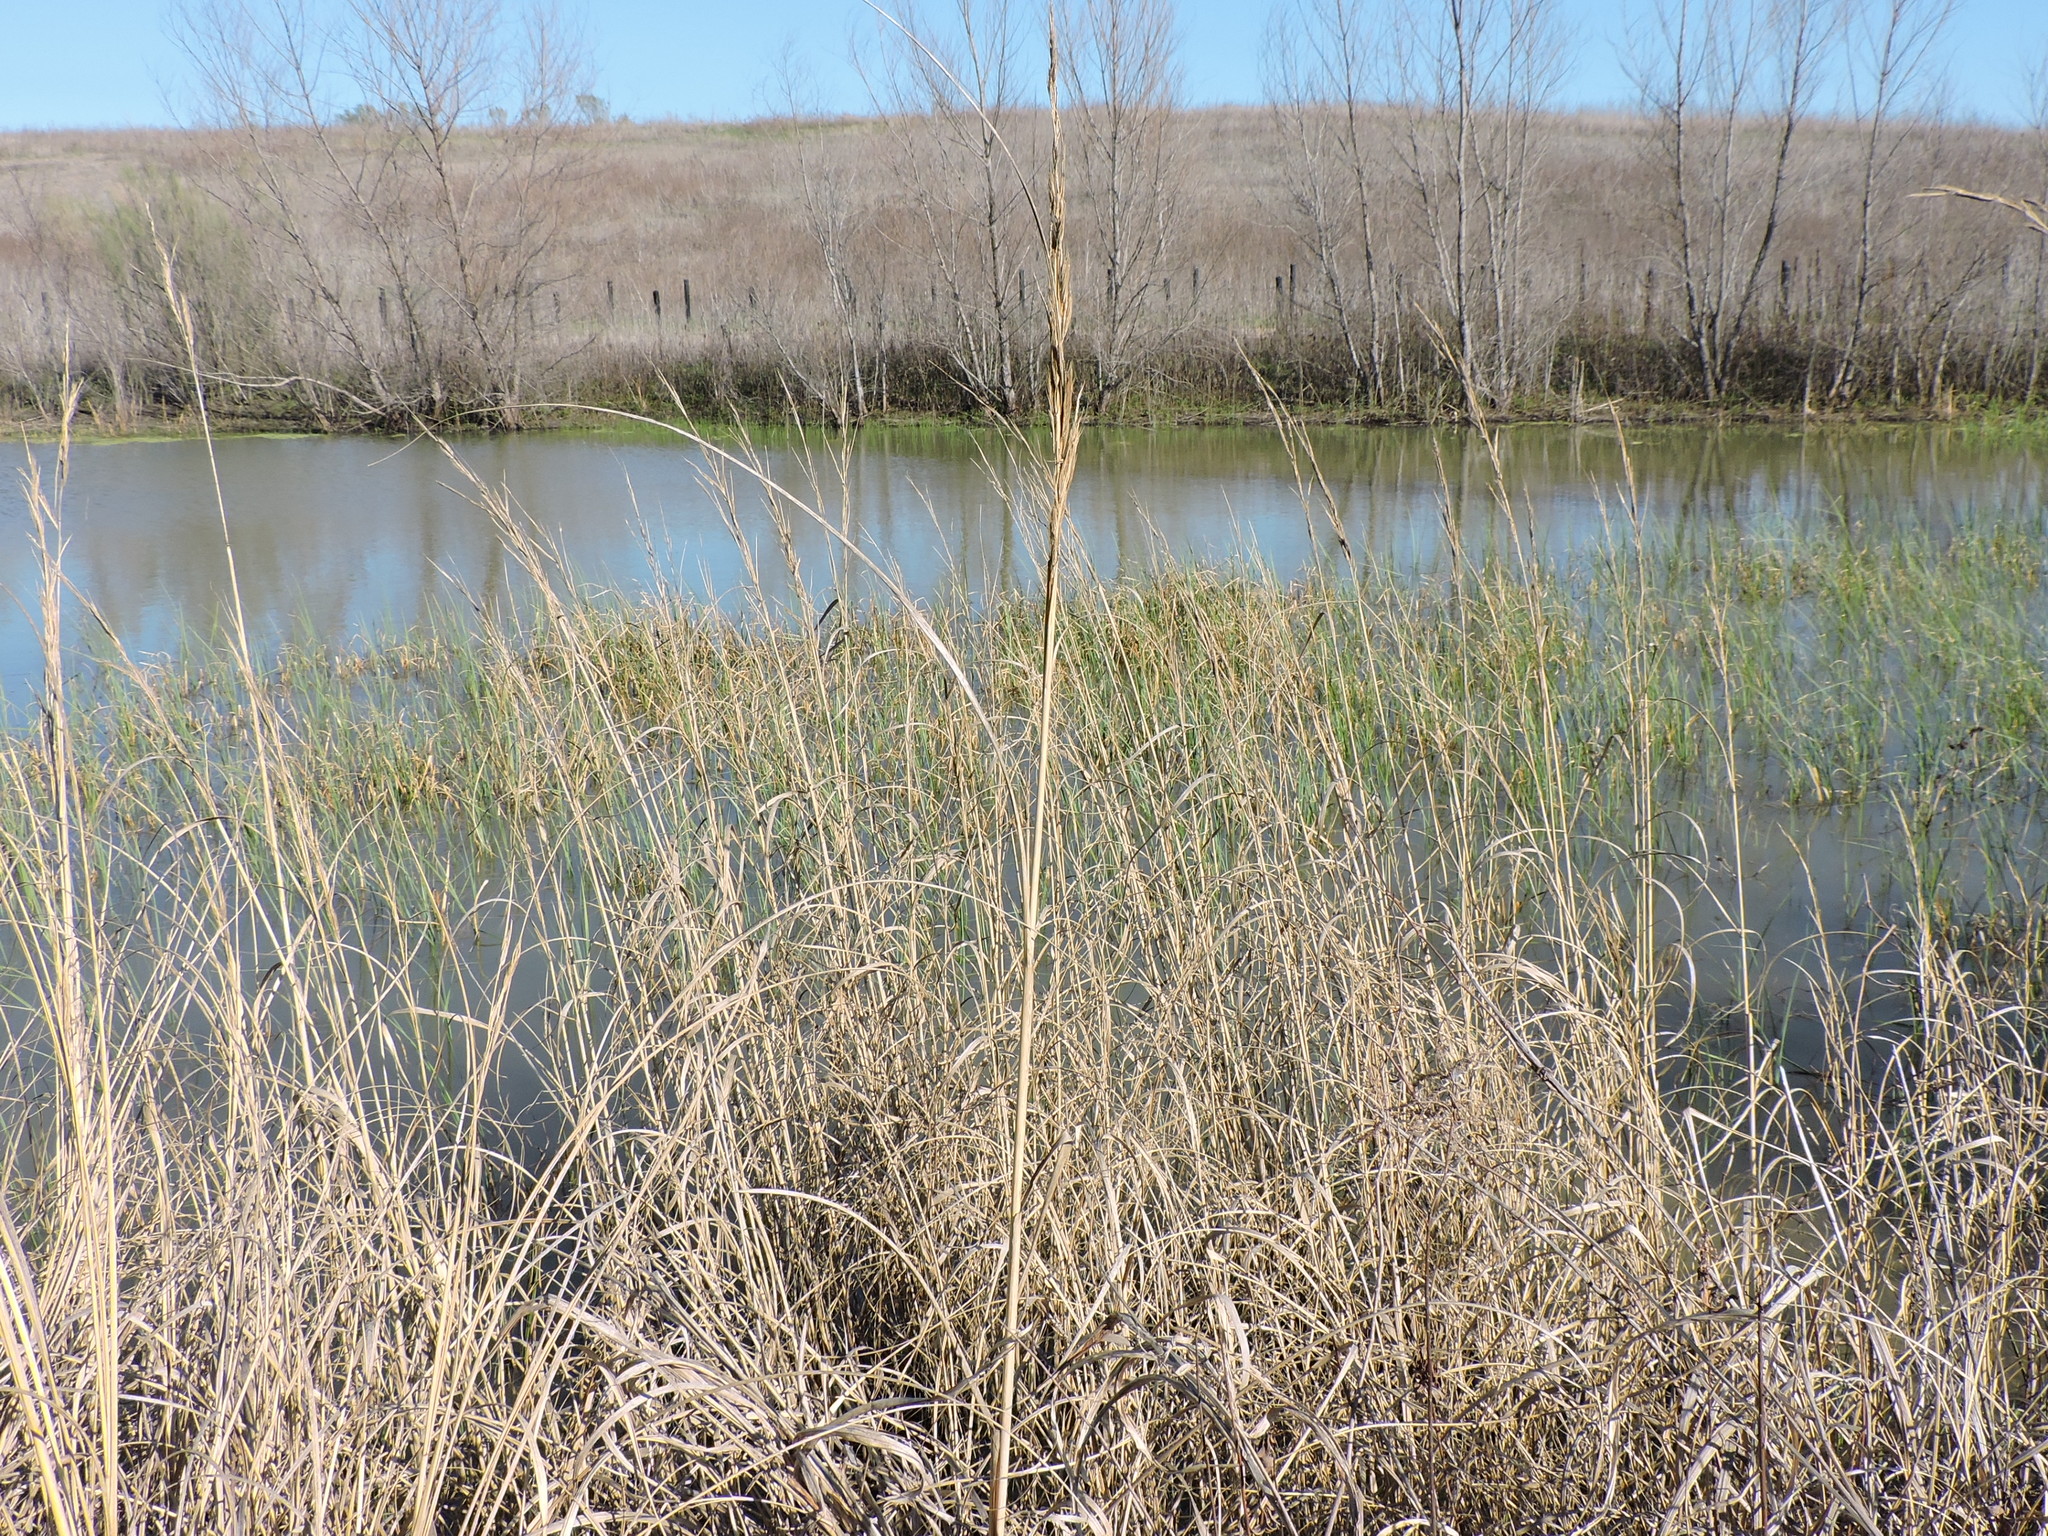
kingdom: Plantae
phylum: Tracheophyta
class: Liliopsida
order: Poales
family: Poaceae
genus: Sporobolus
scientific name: Sporobolus michauxianus
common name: Freshwater cordgrass
